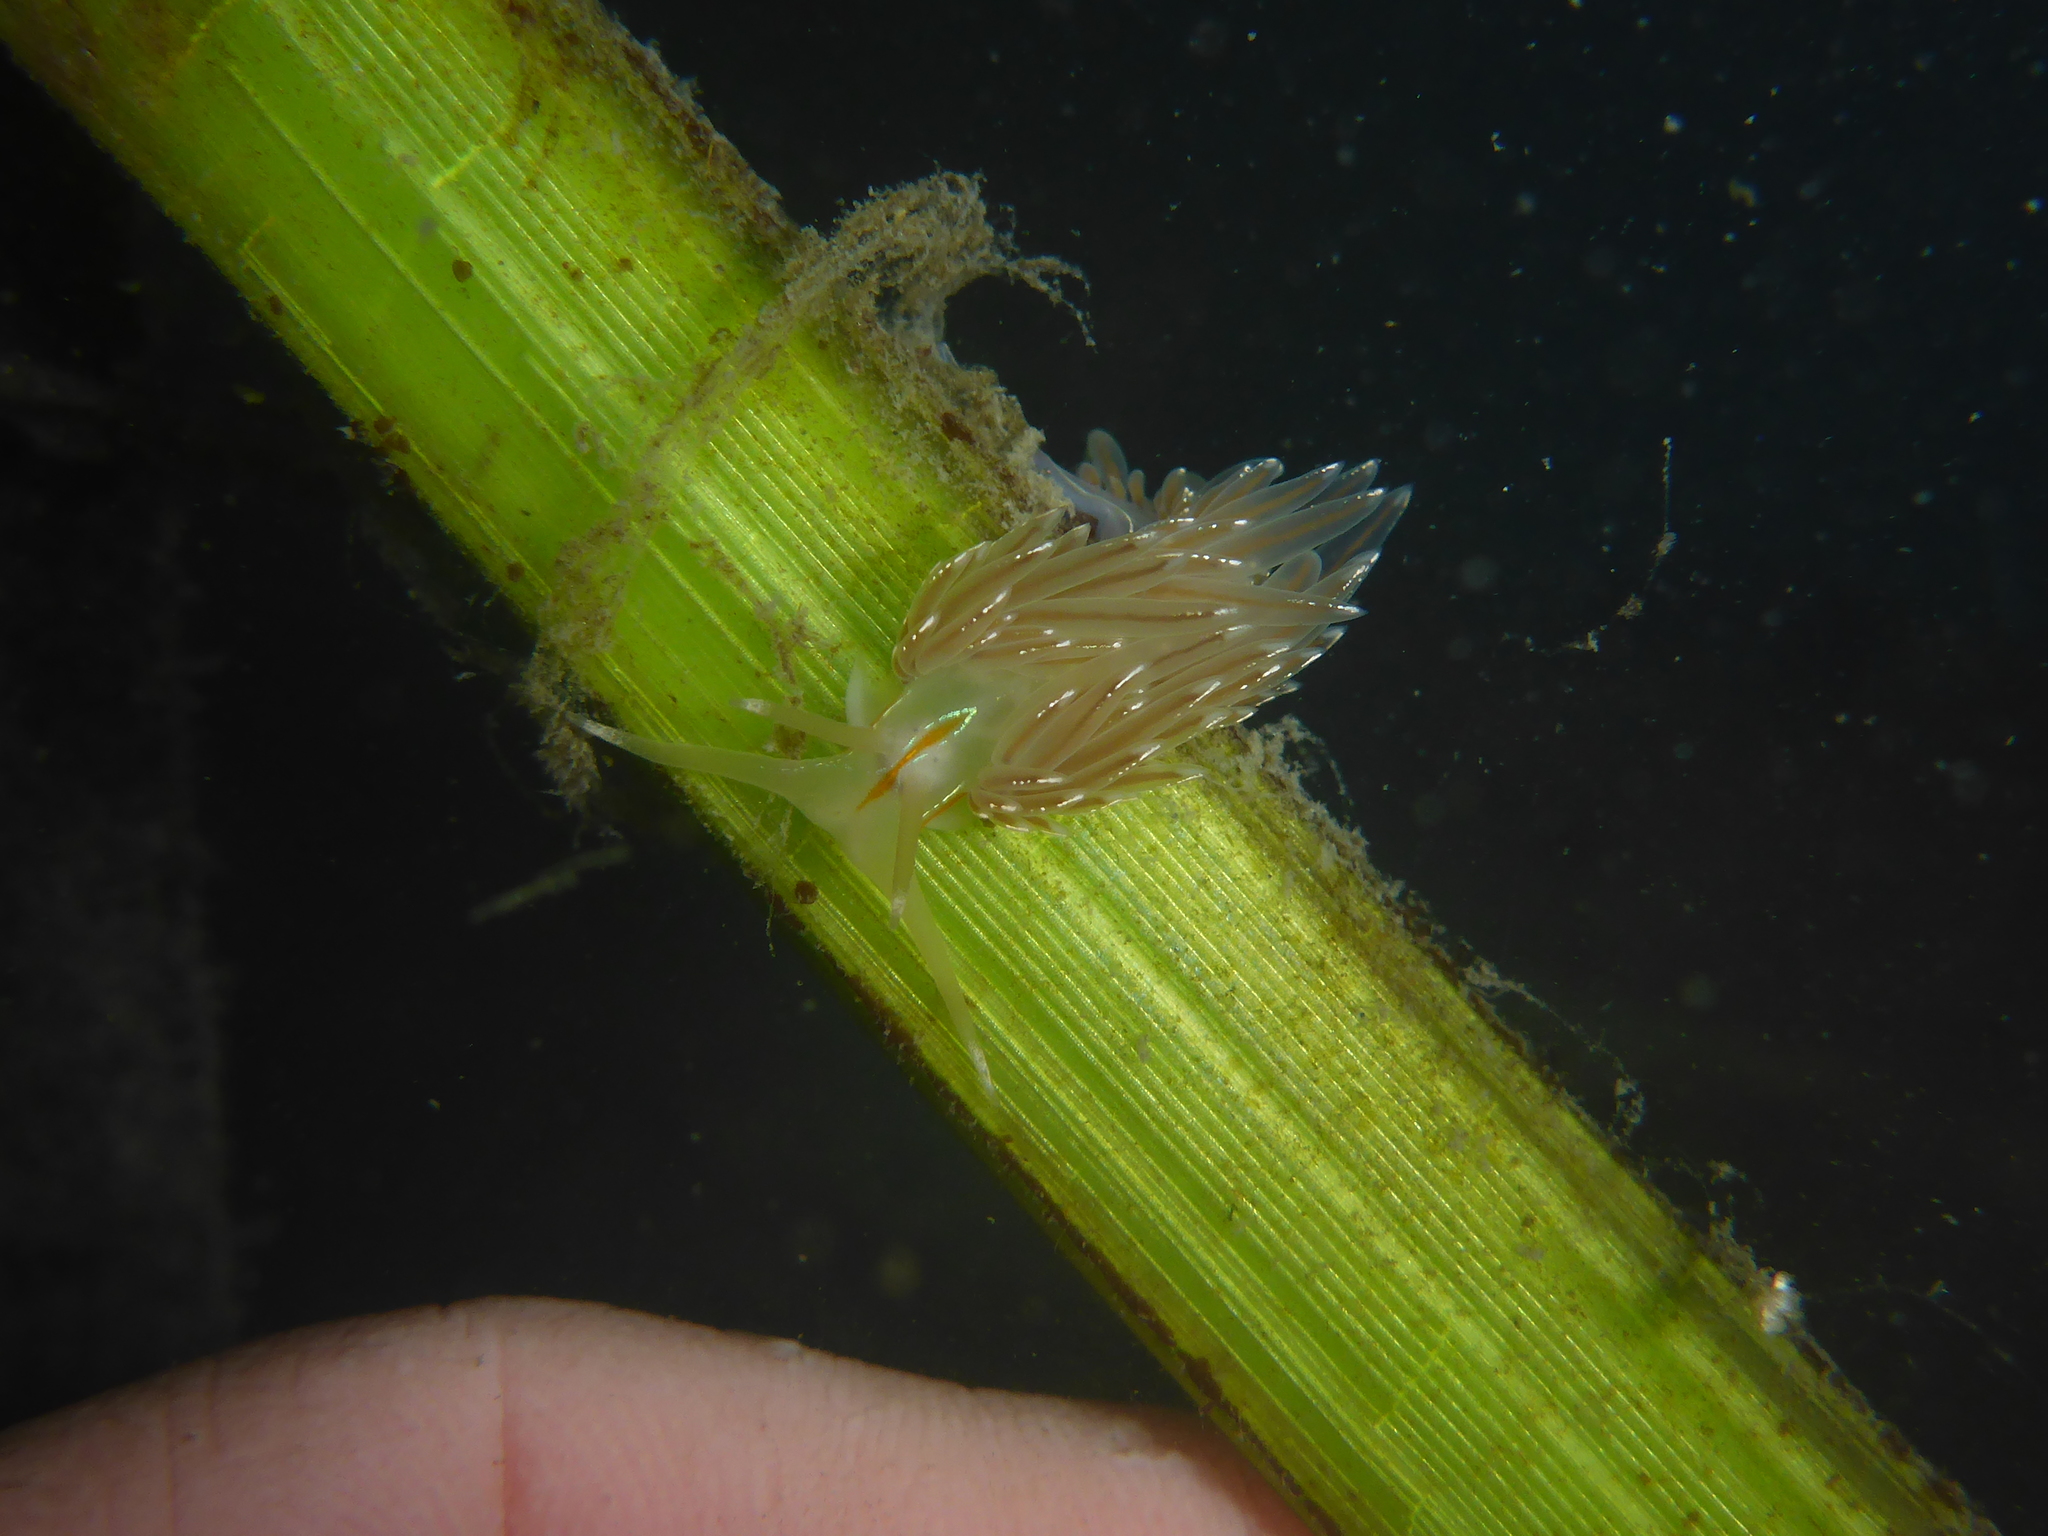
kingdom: Animalia
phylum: Mollusca
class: Gastropoda
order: Nudibranchia
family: Myrrhinidae
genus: Hermissenda
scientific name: Hermissenda crassicornis
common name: Hermissenda
